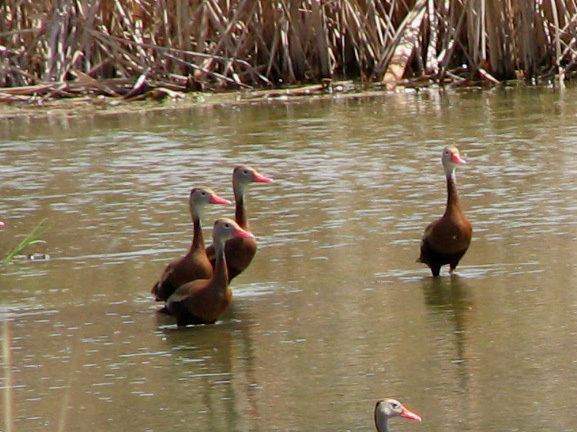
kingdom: Animalia
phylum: Chordata
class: Aves
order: Anseriformes
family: Anatidae
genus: Dendrocygna
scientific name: Dendrocygna autumnalis
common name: Black-bellied whistling duck
